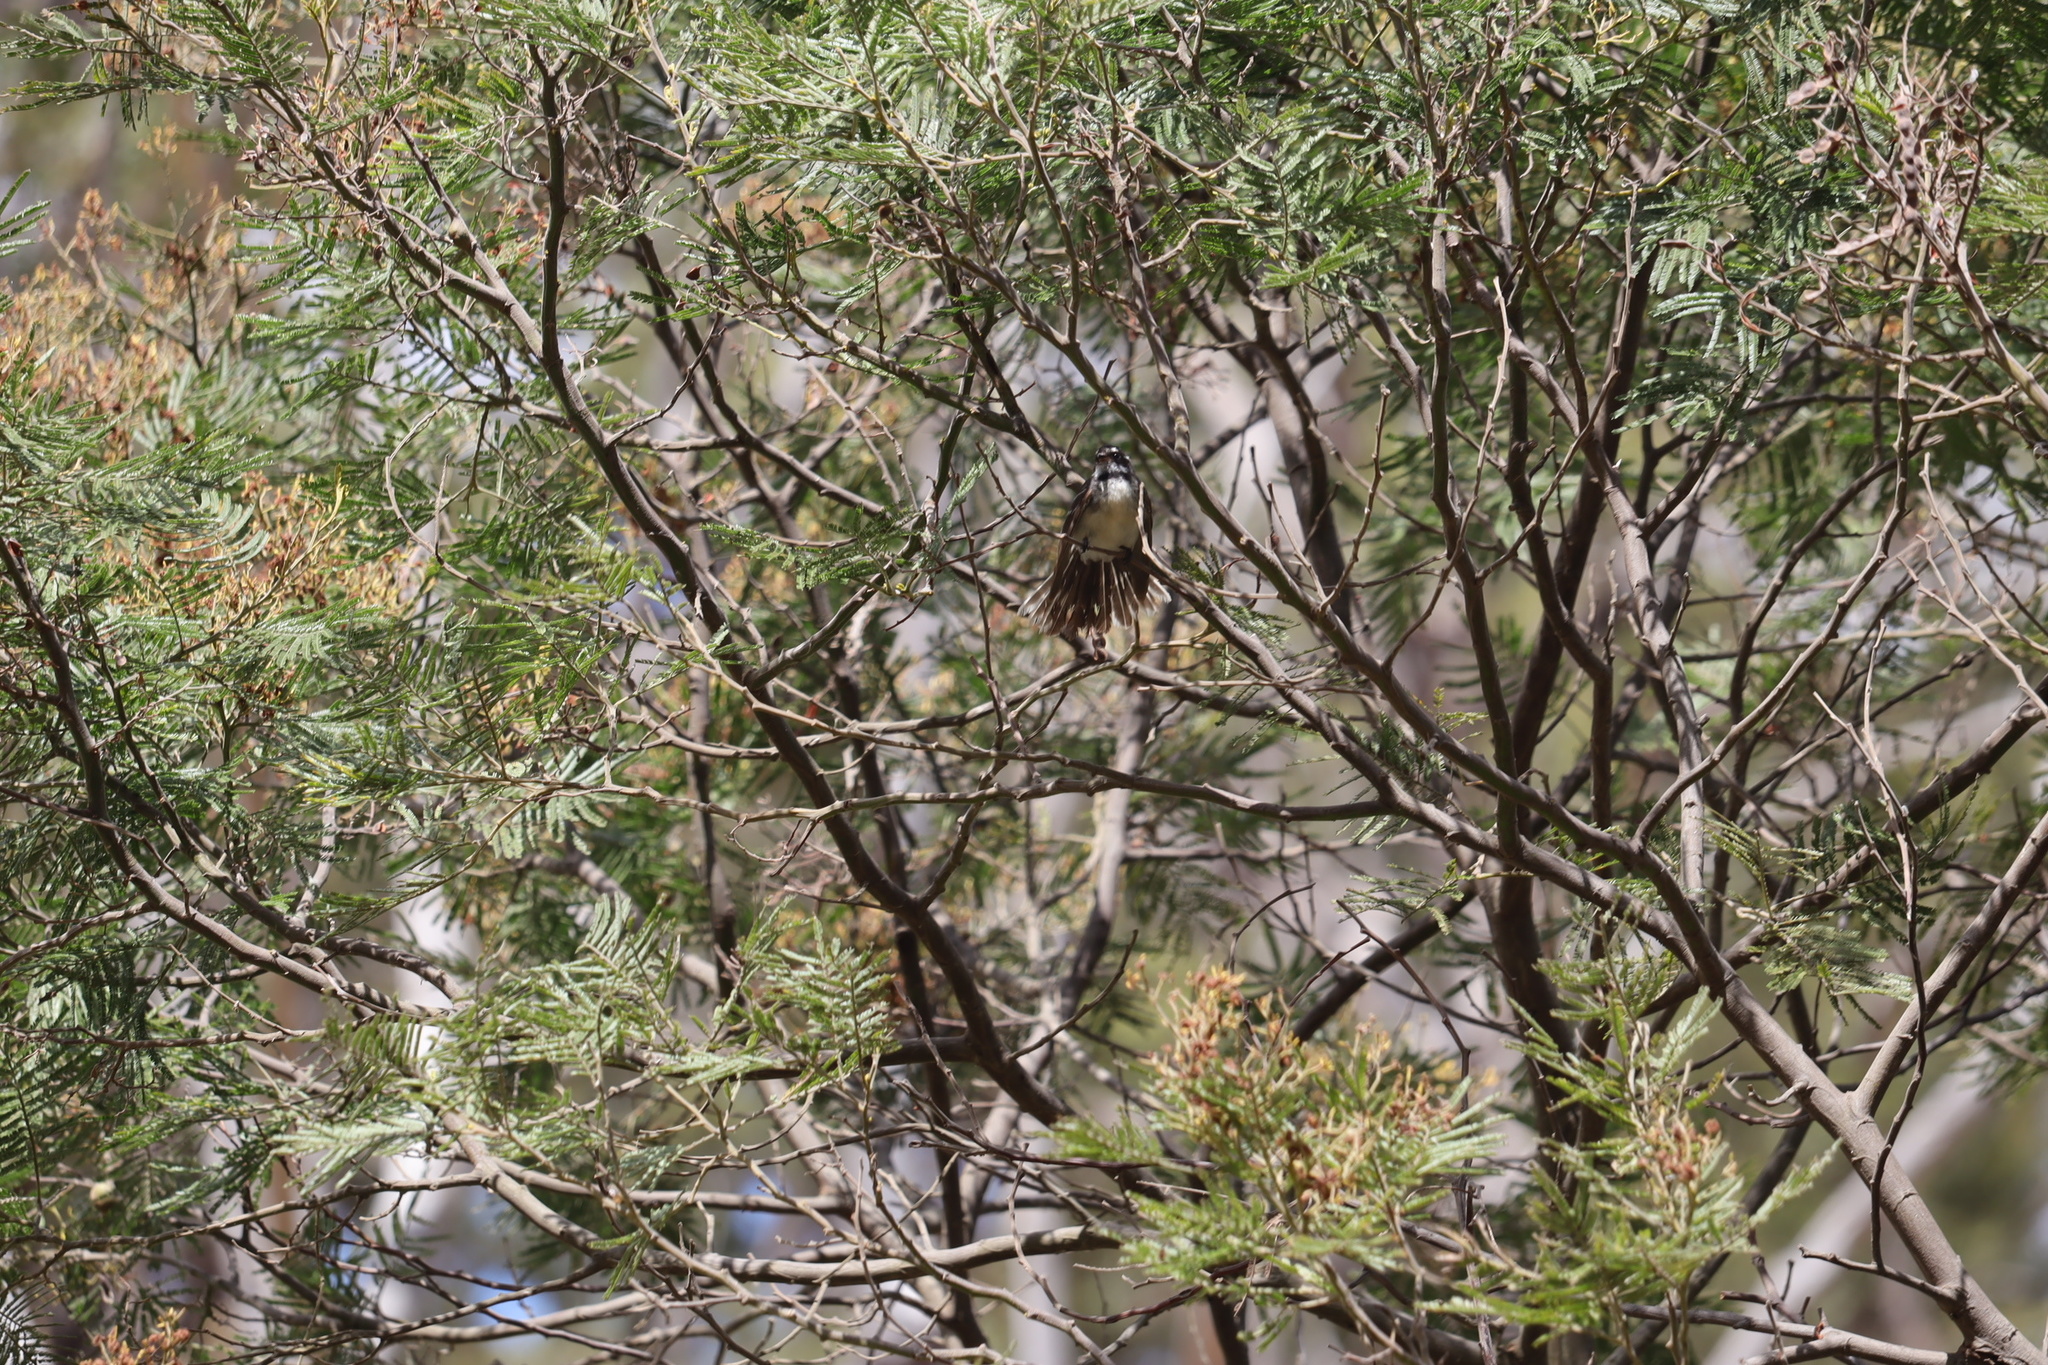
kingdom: Animalia
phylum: Chordata
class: Aves
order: Passeriformes
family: Rhipiduridae
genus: Rhipidura
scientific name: Rhipidura albiscapa
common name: Grey fantail
